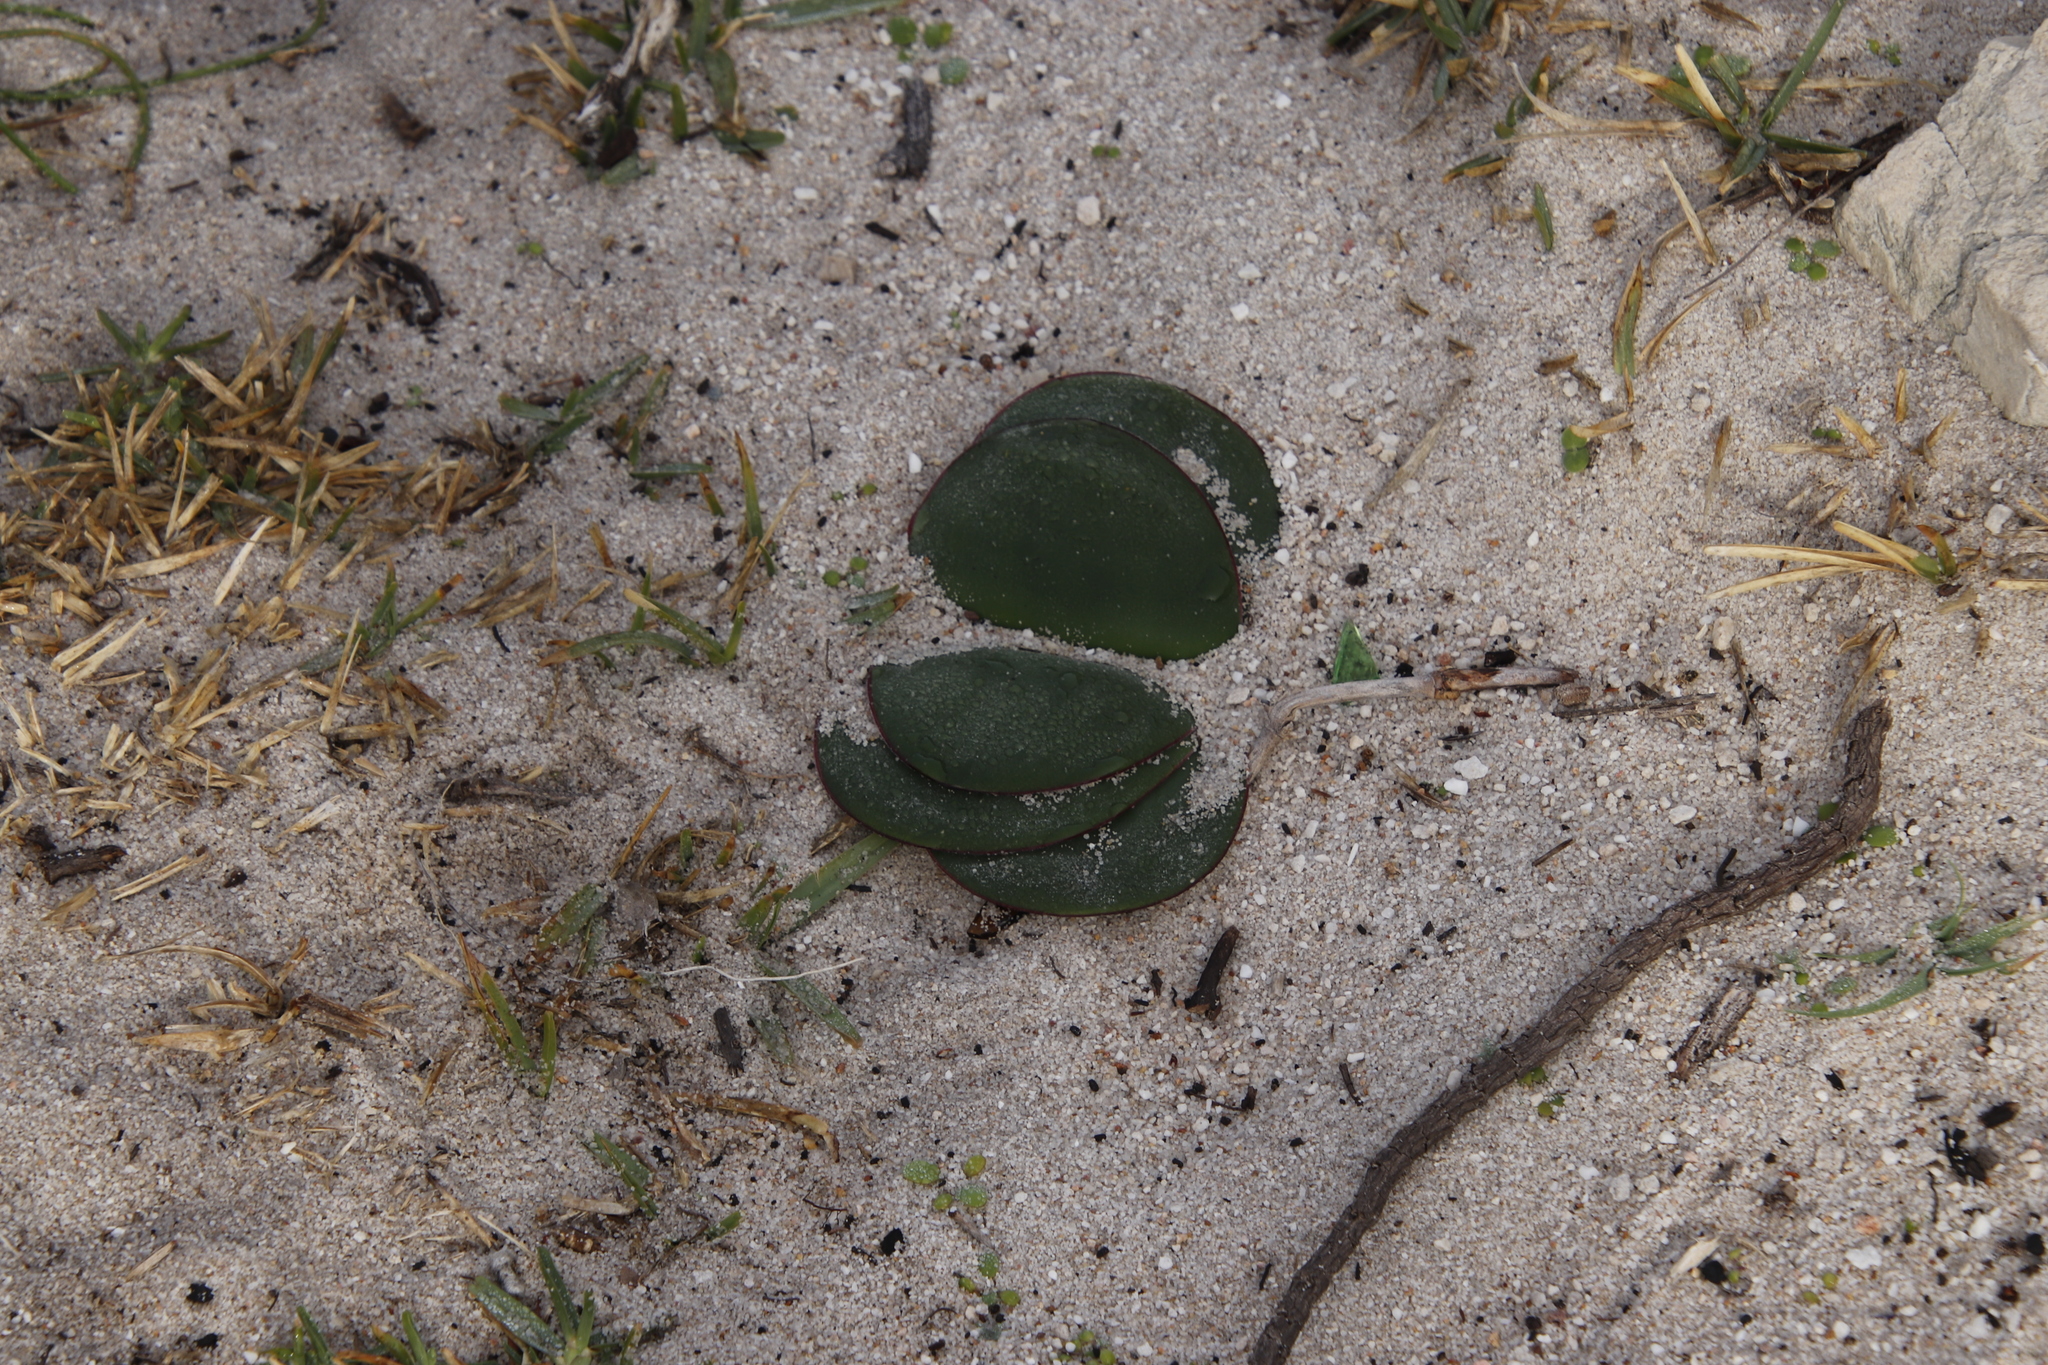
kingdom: Plantae
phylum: Tracheophyta
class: Liliopsida
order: Asparagales
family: Amaryllidaceae
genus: Brunsvigia
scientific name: Brunsvigia orientalis
